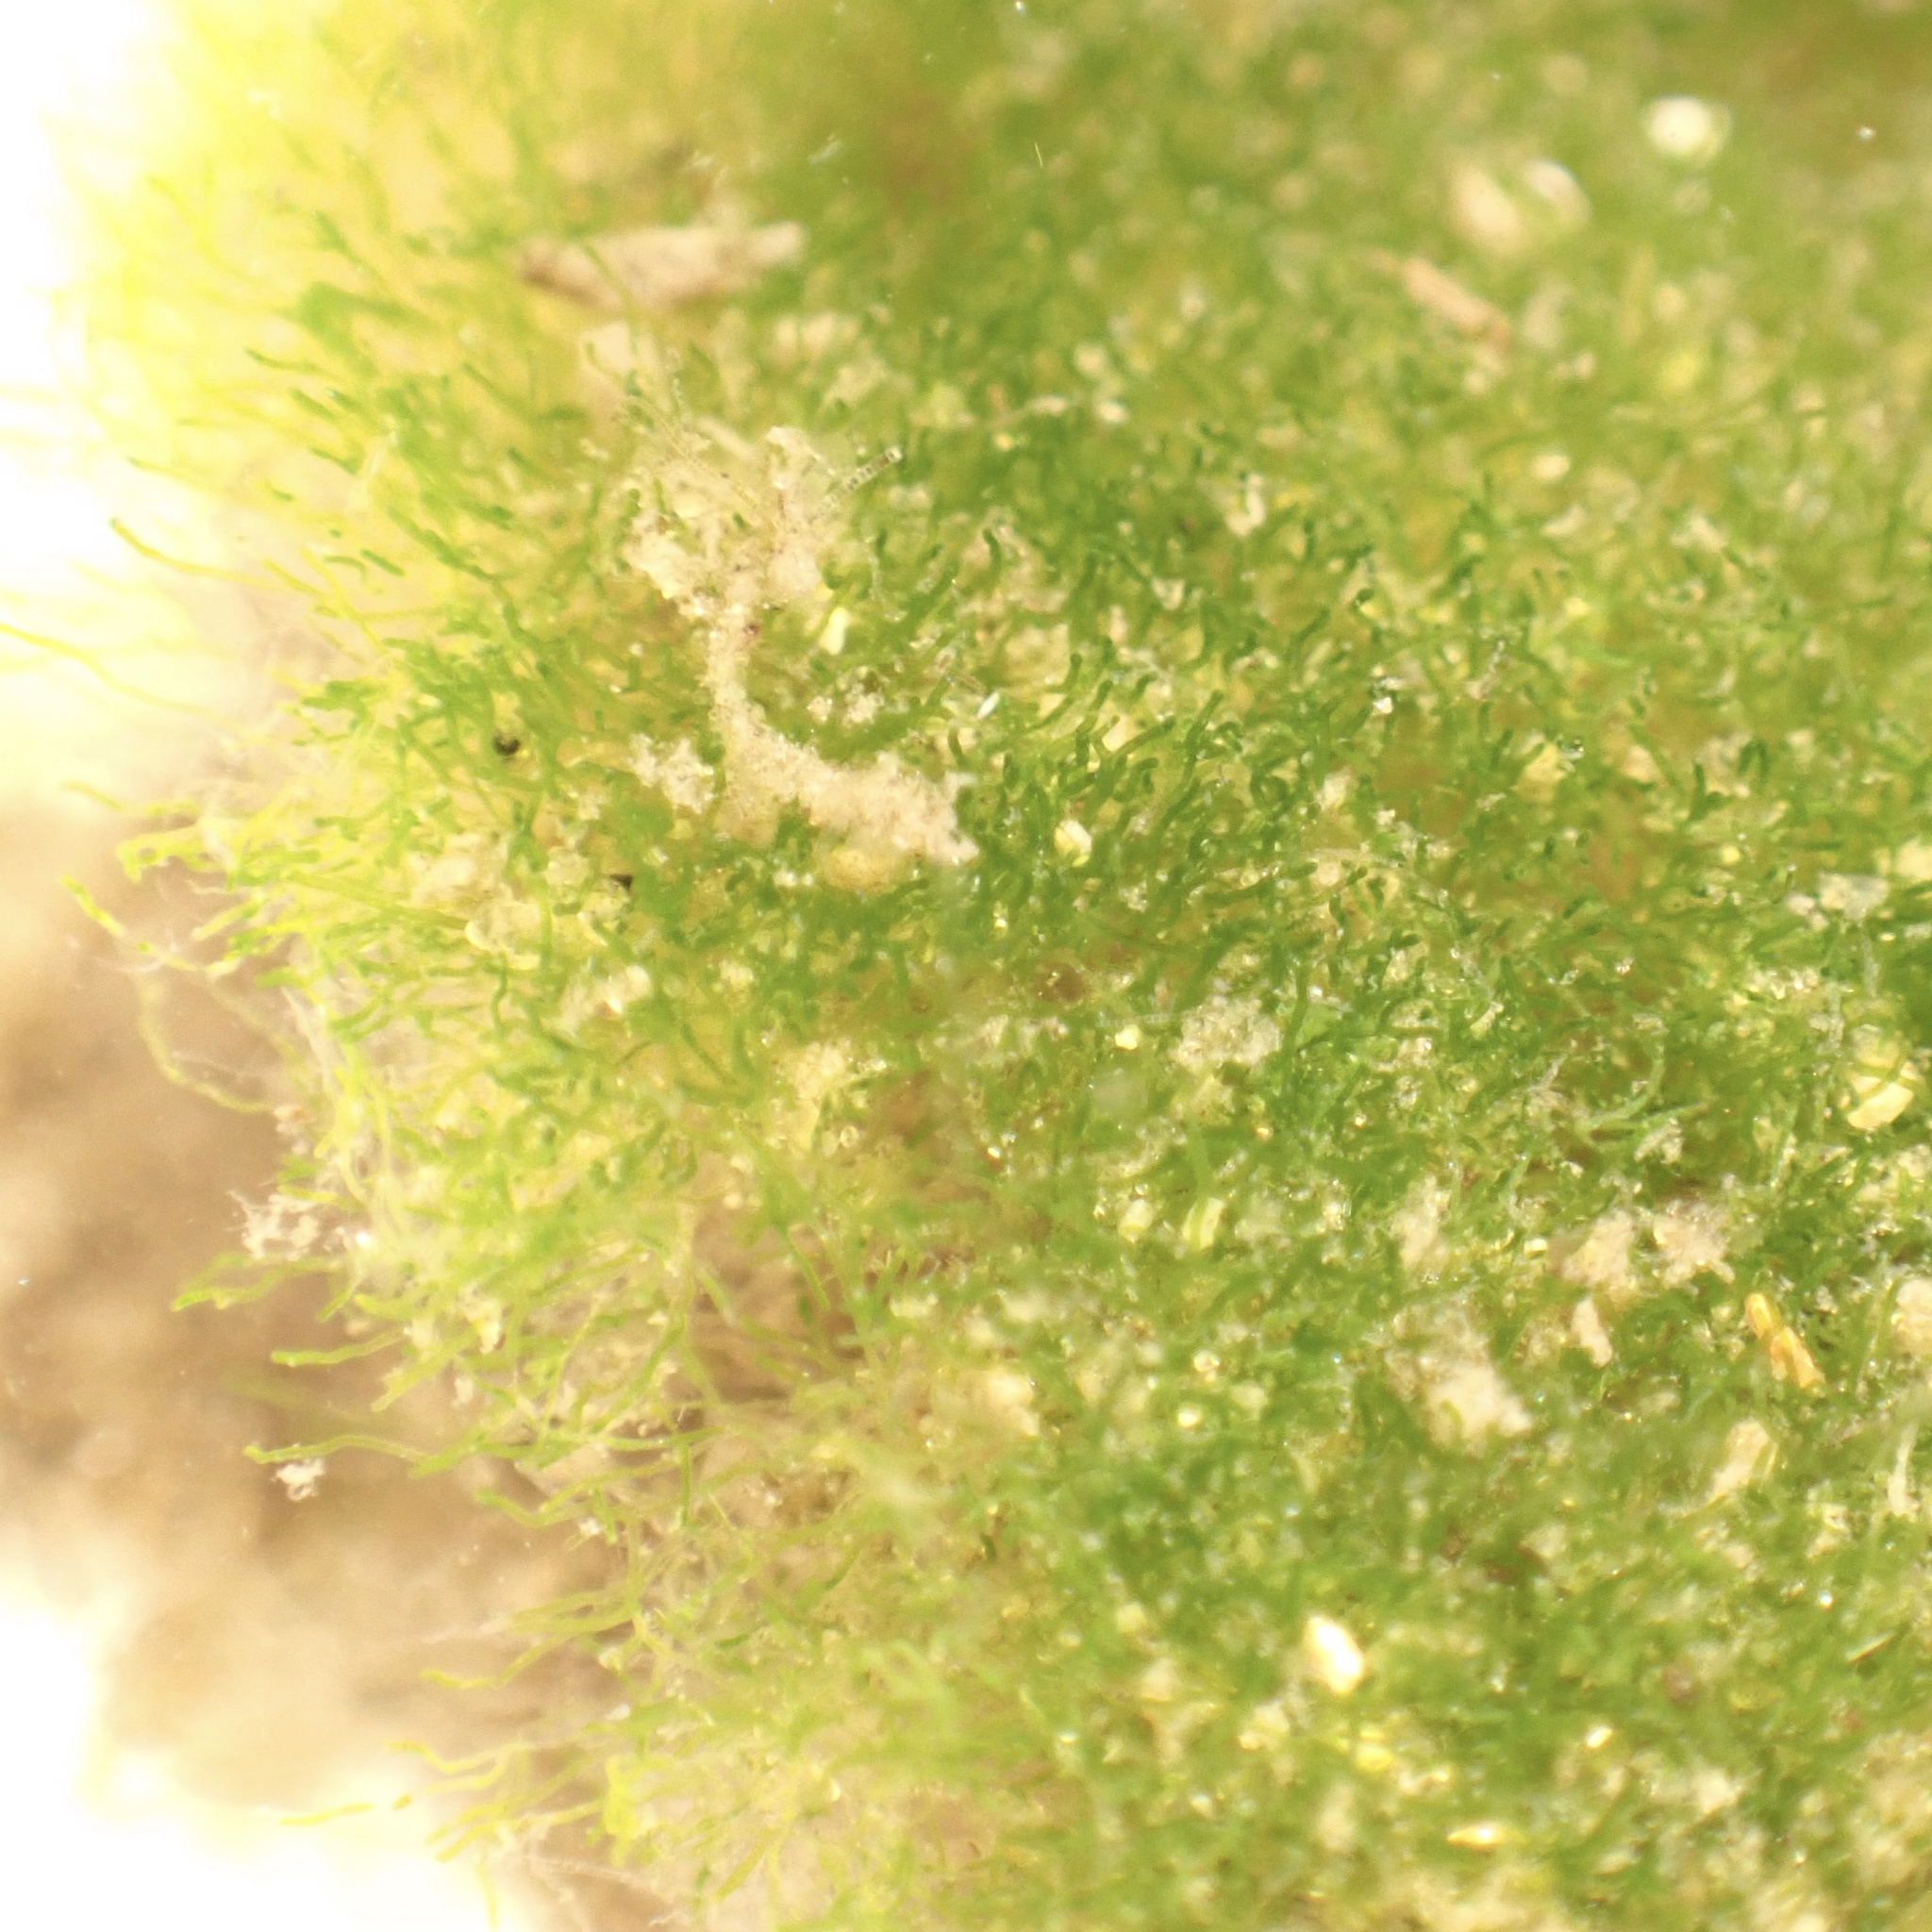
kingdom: Chromista
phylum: Ochrophyta
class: Xanthophyceae
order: Vaucheriales
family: Vaucheriaceae
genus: Vaucheria
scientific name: Vaucheria
